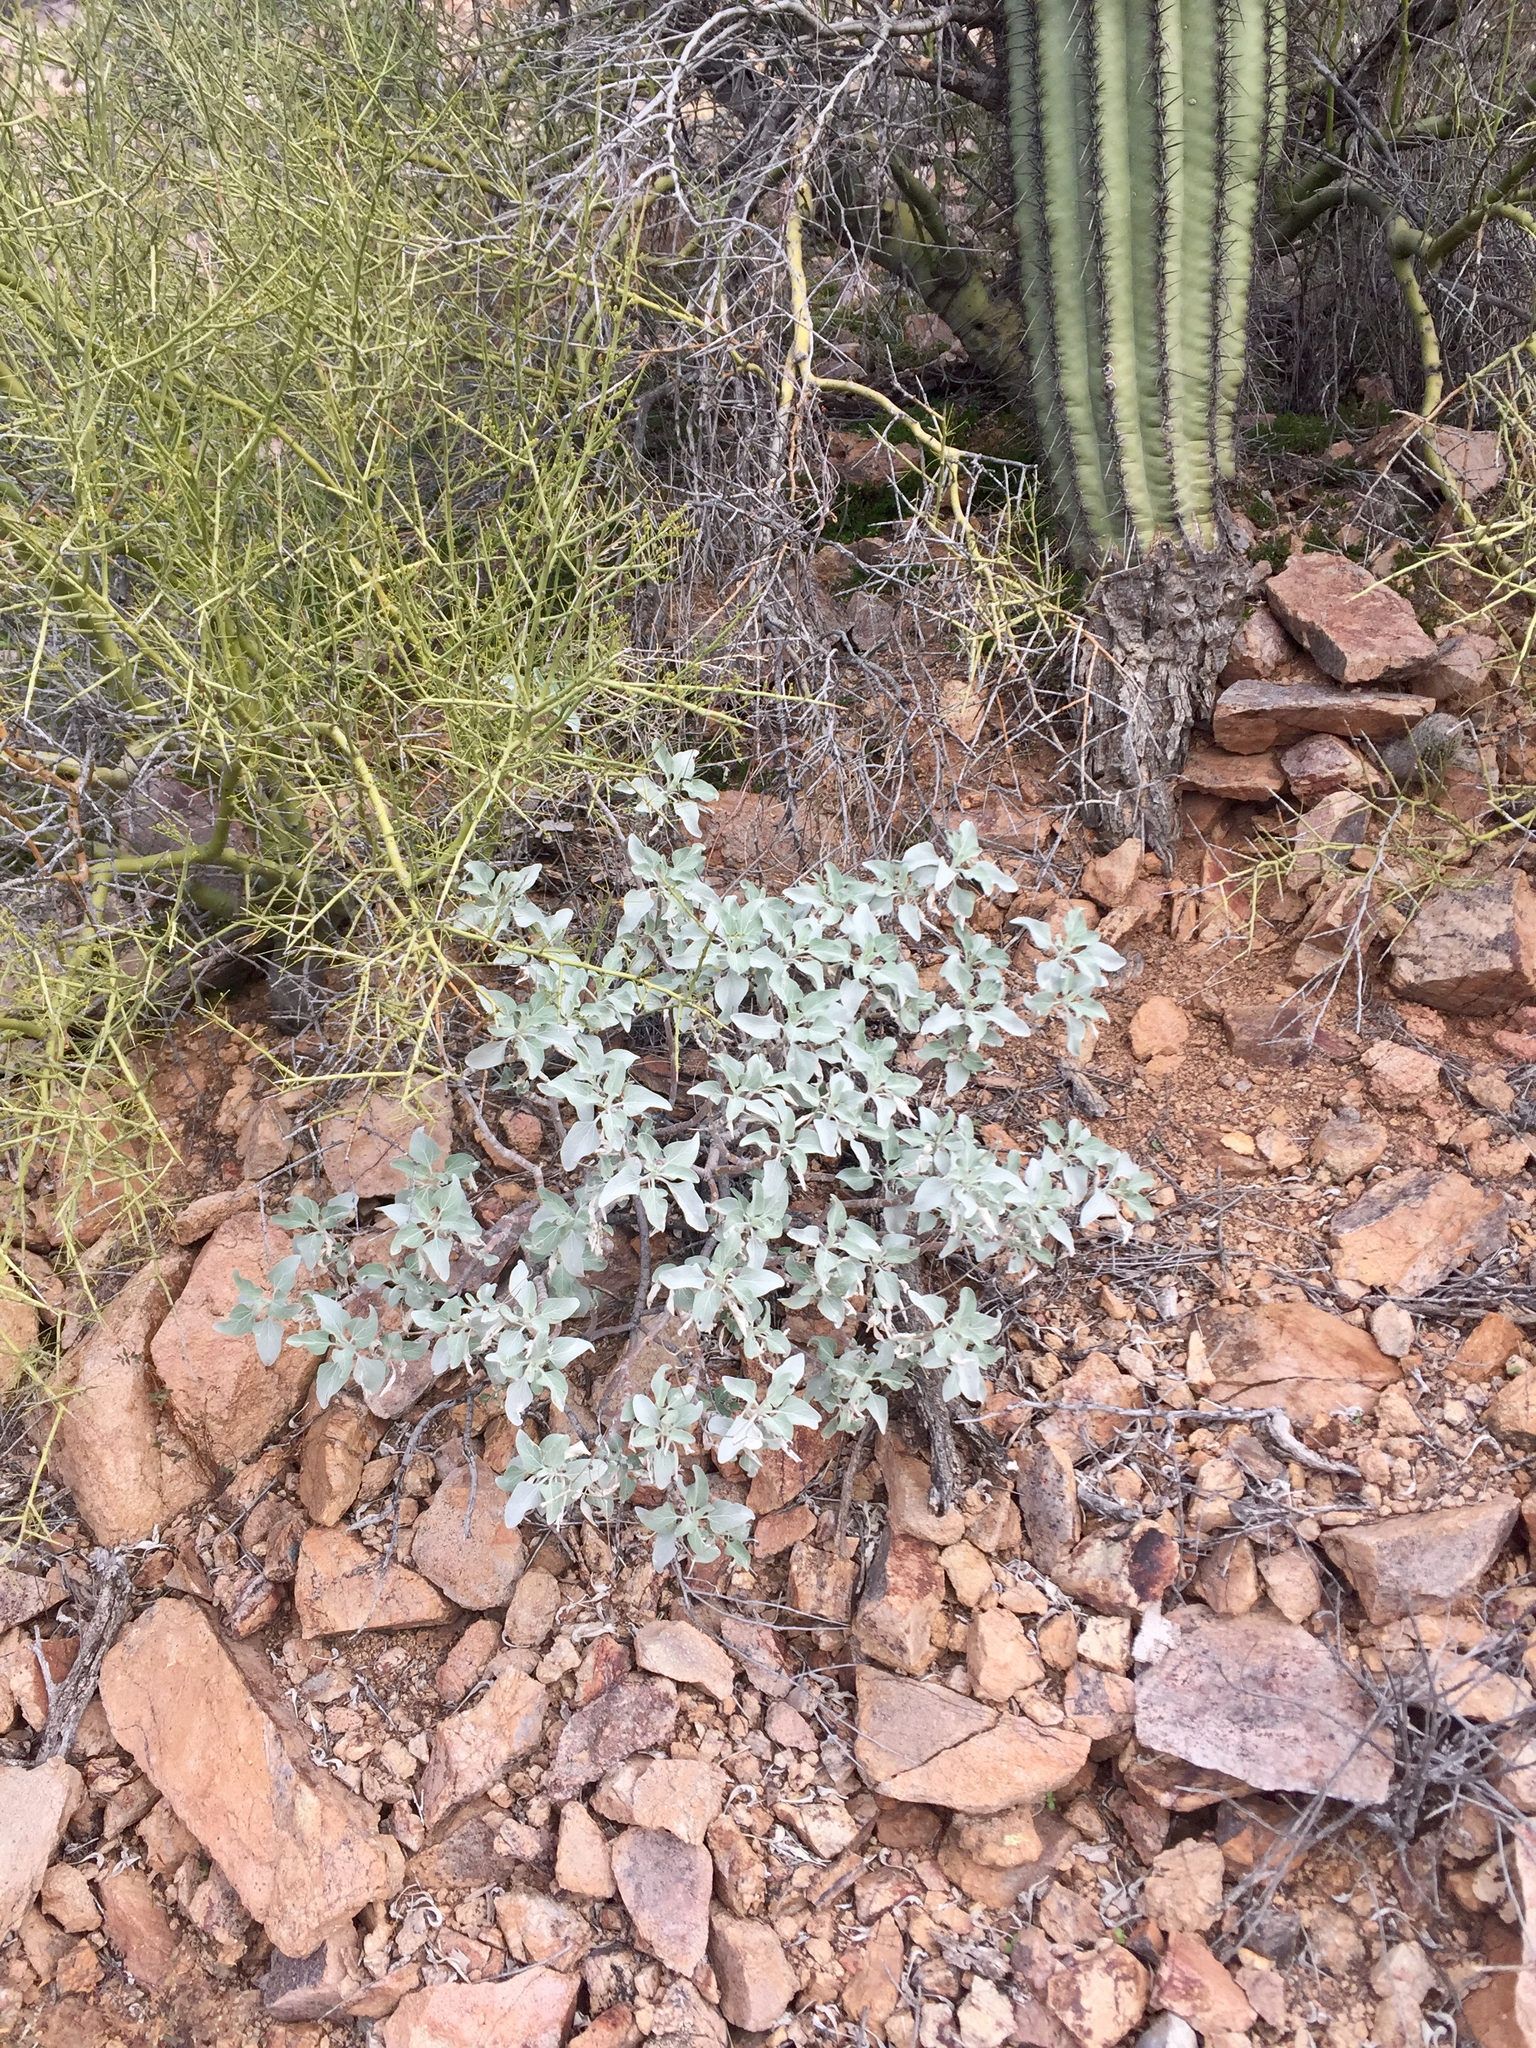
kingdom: Plantae
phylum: Tracheophyta
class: Magnoliopsida
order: Asterales
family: Asteraceae
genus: Encelia
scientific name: Encelia farinosa
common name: Brittlebush
